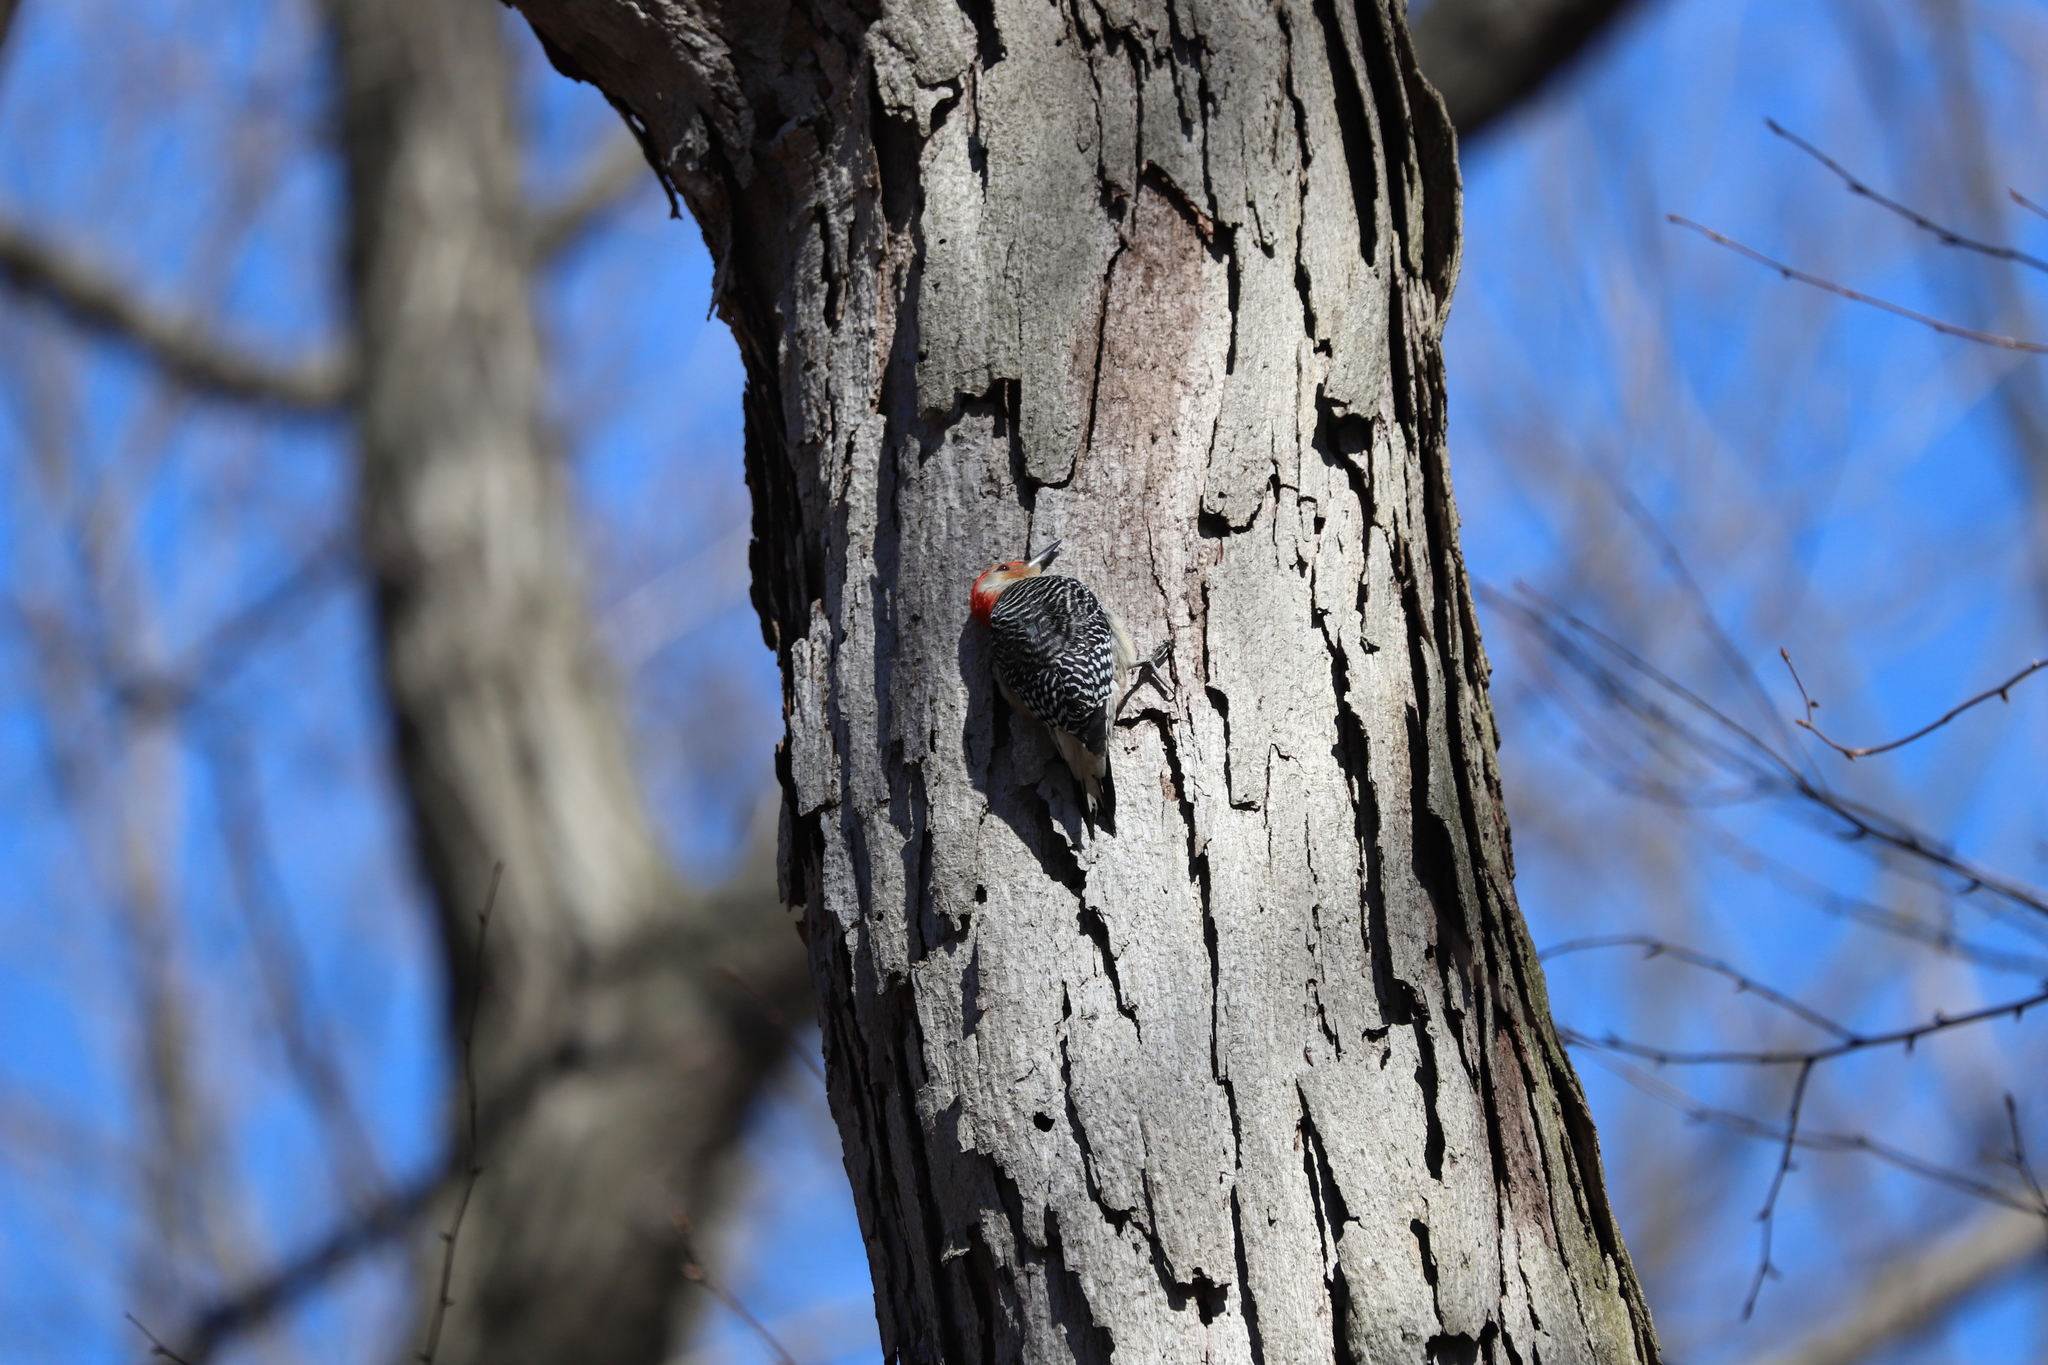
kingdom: Animalia
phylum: Chordata
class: Aves
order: Piciformes
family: Picidae
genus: Melanerpes
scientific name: Melanerpes carolinus
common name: Red-bellied woodpecker
